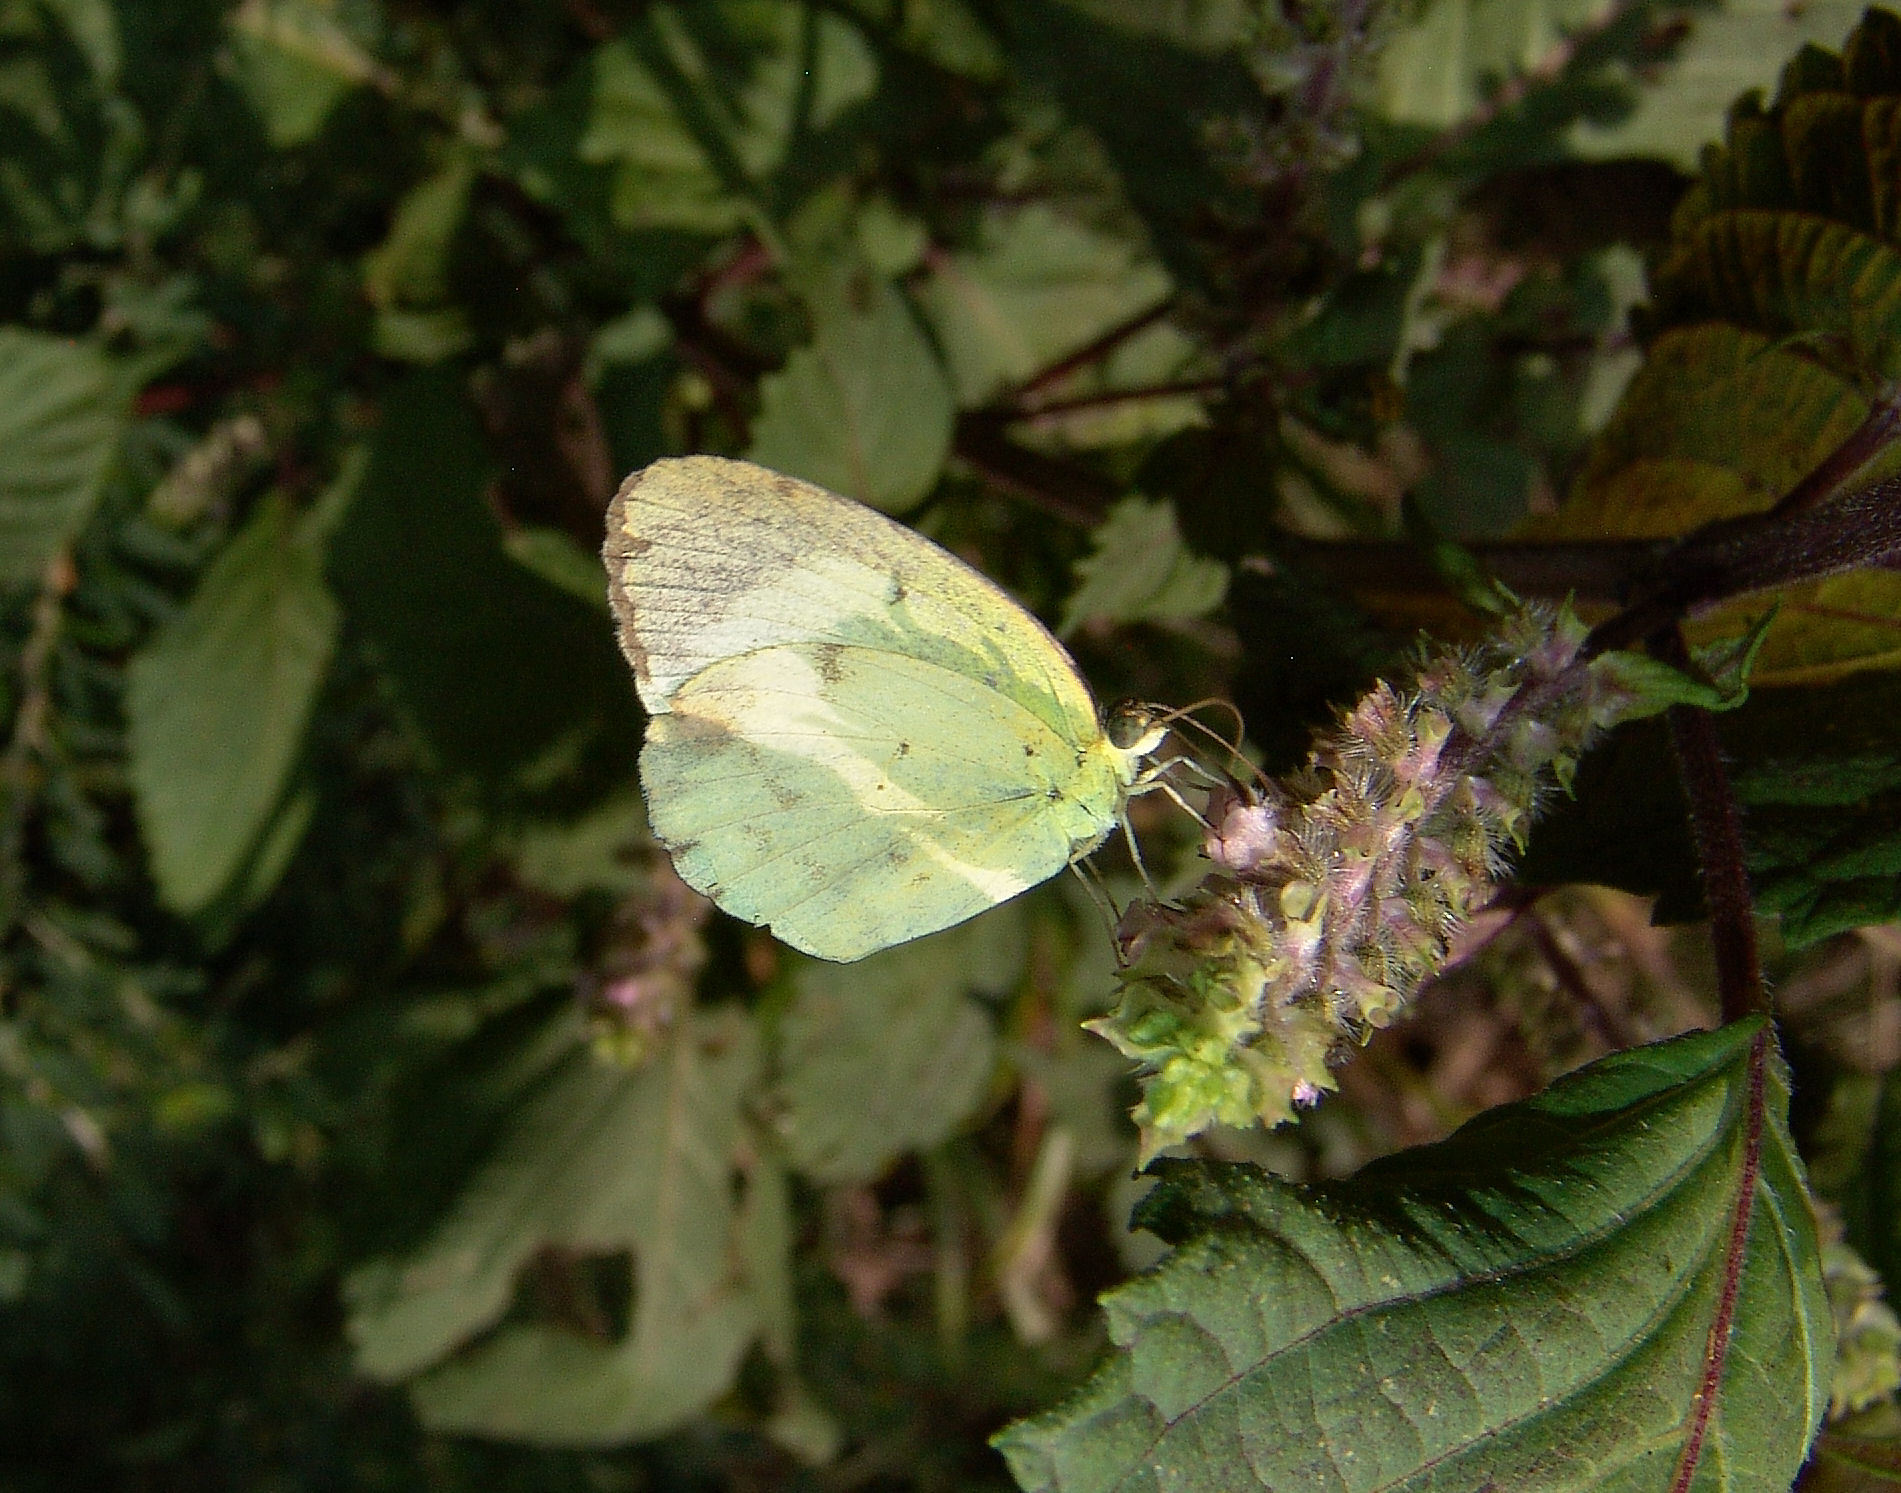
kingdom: Animalia
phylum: Arthropoda
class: Insecta
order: Lepidoptera
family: Pieridae
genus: Pyrisitia
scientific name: Pyrisitia lisa
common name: Little yellow
